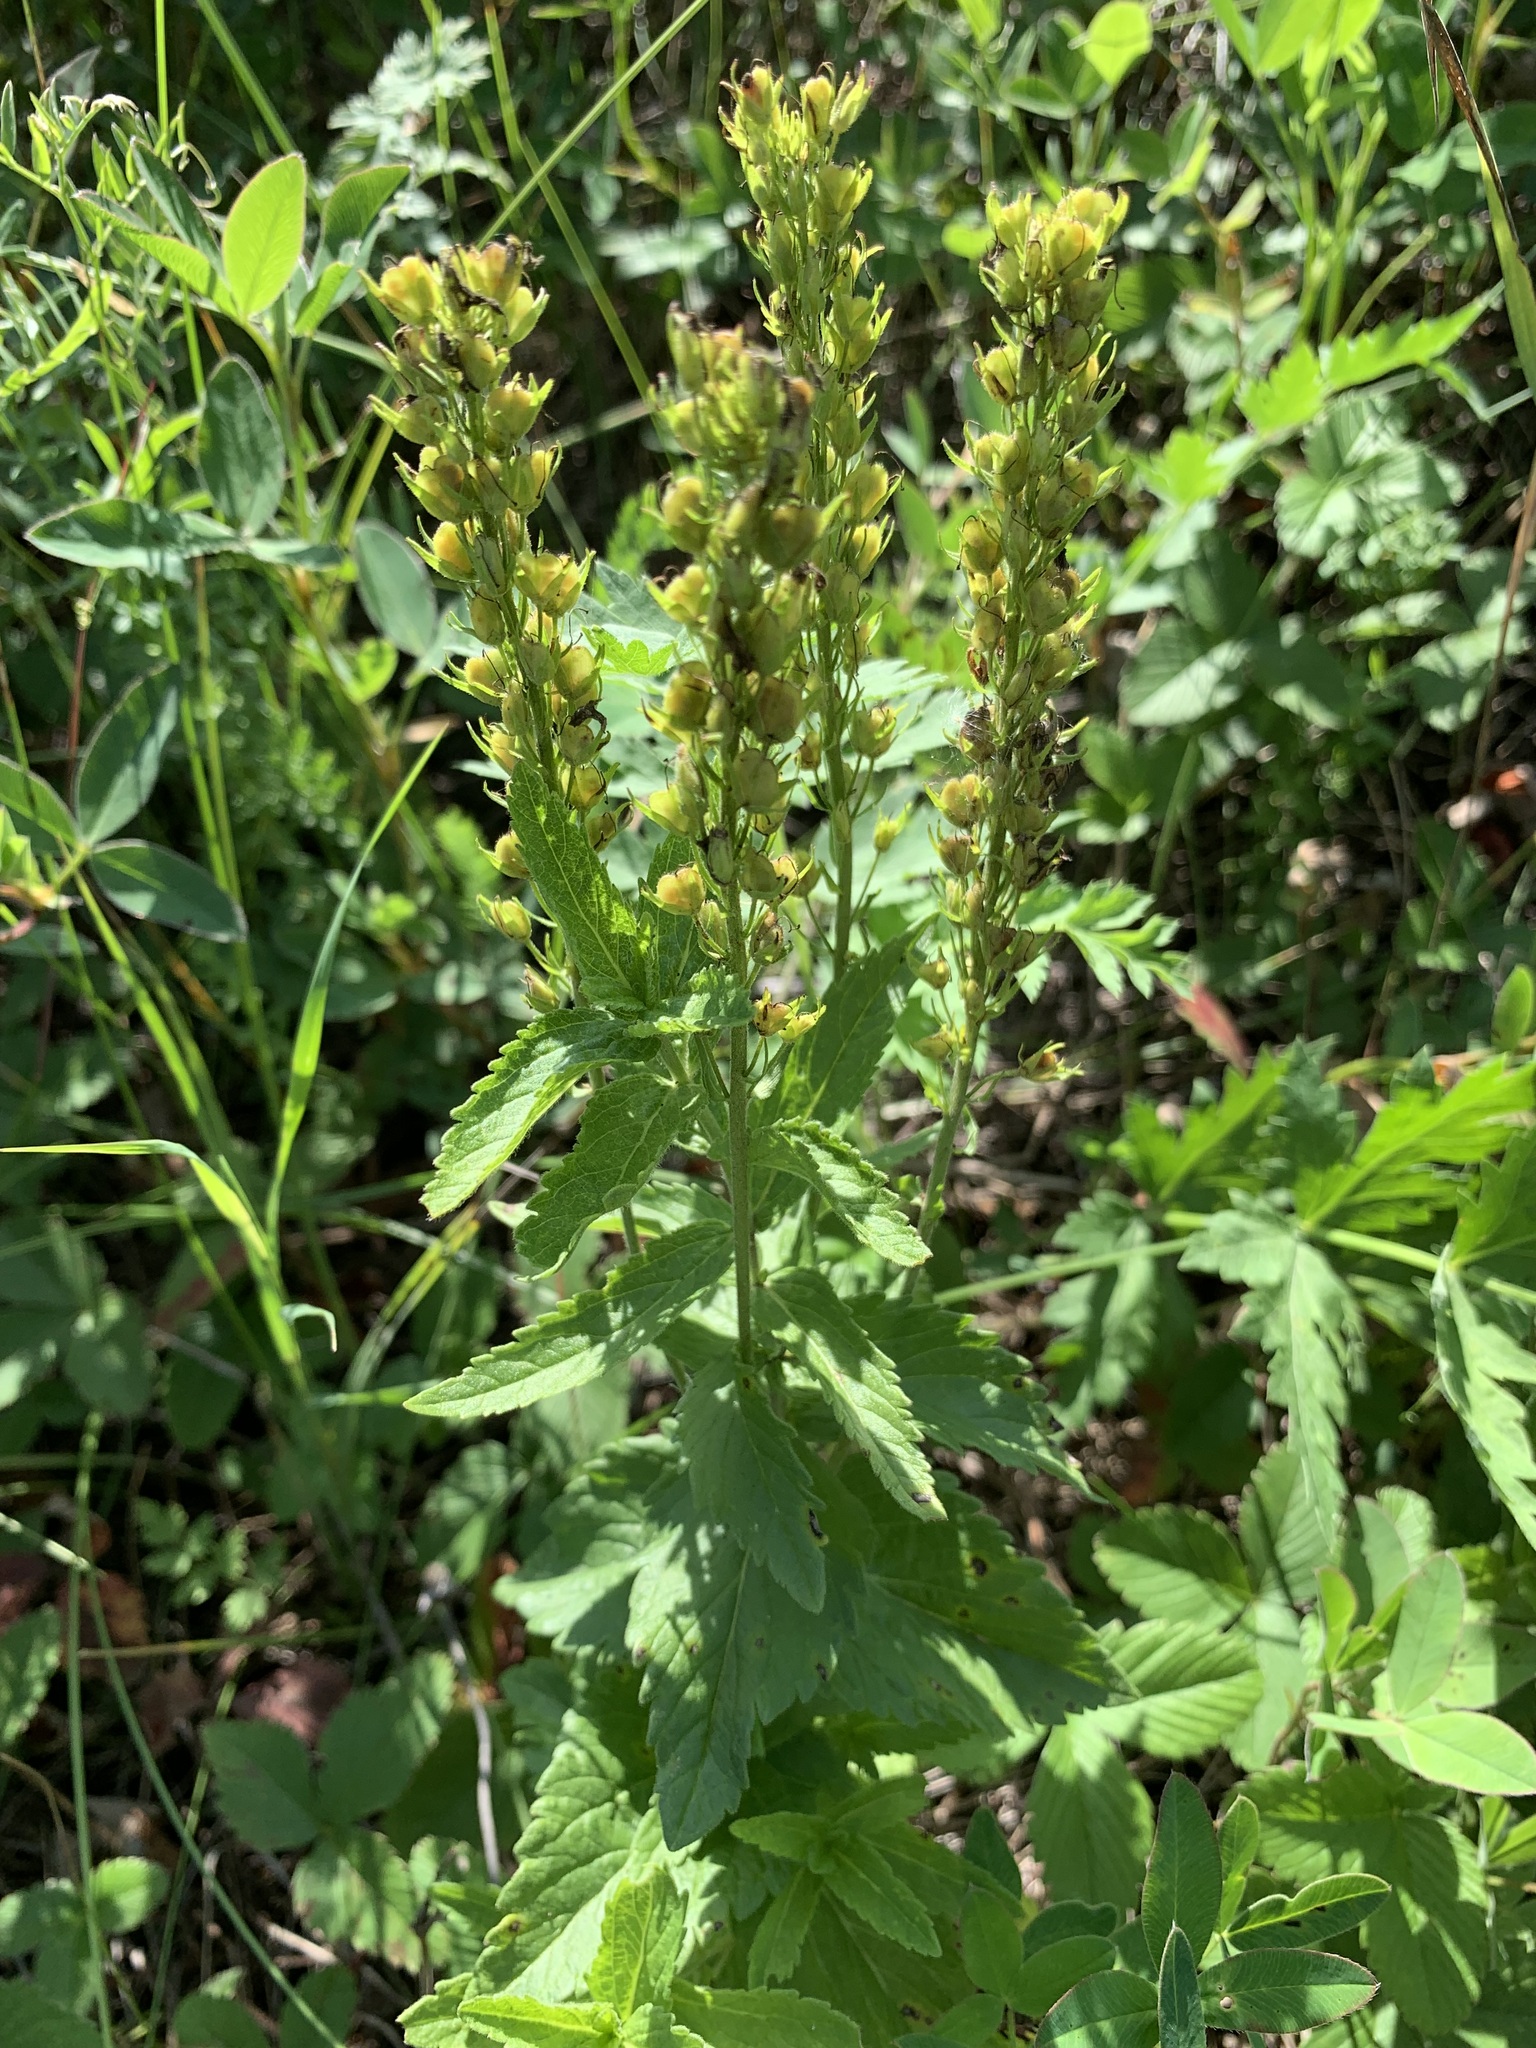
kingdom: Plantae
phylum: Tracheophyta
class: Magnoliopsida
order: Lamiales
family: Plantaginaceae
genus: Veronica
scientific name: Veronica teucrium
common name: Large speedwell
